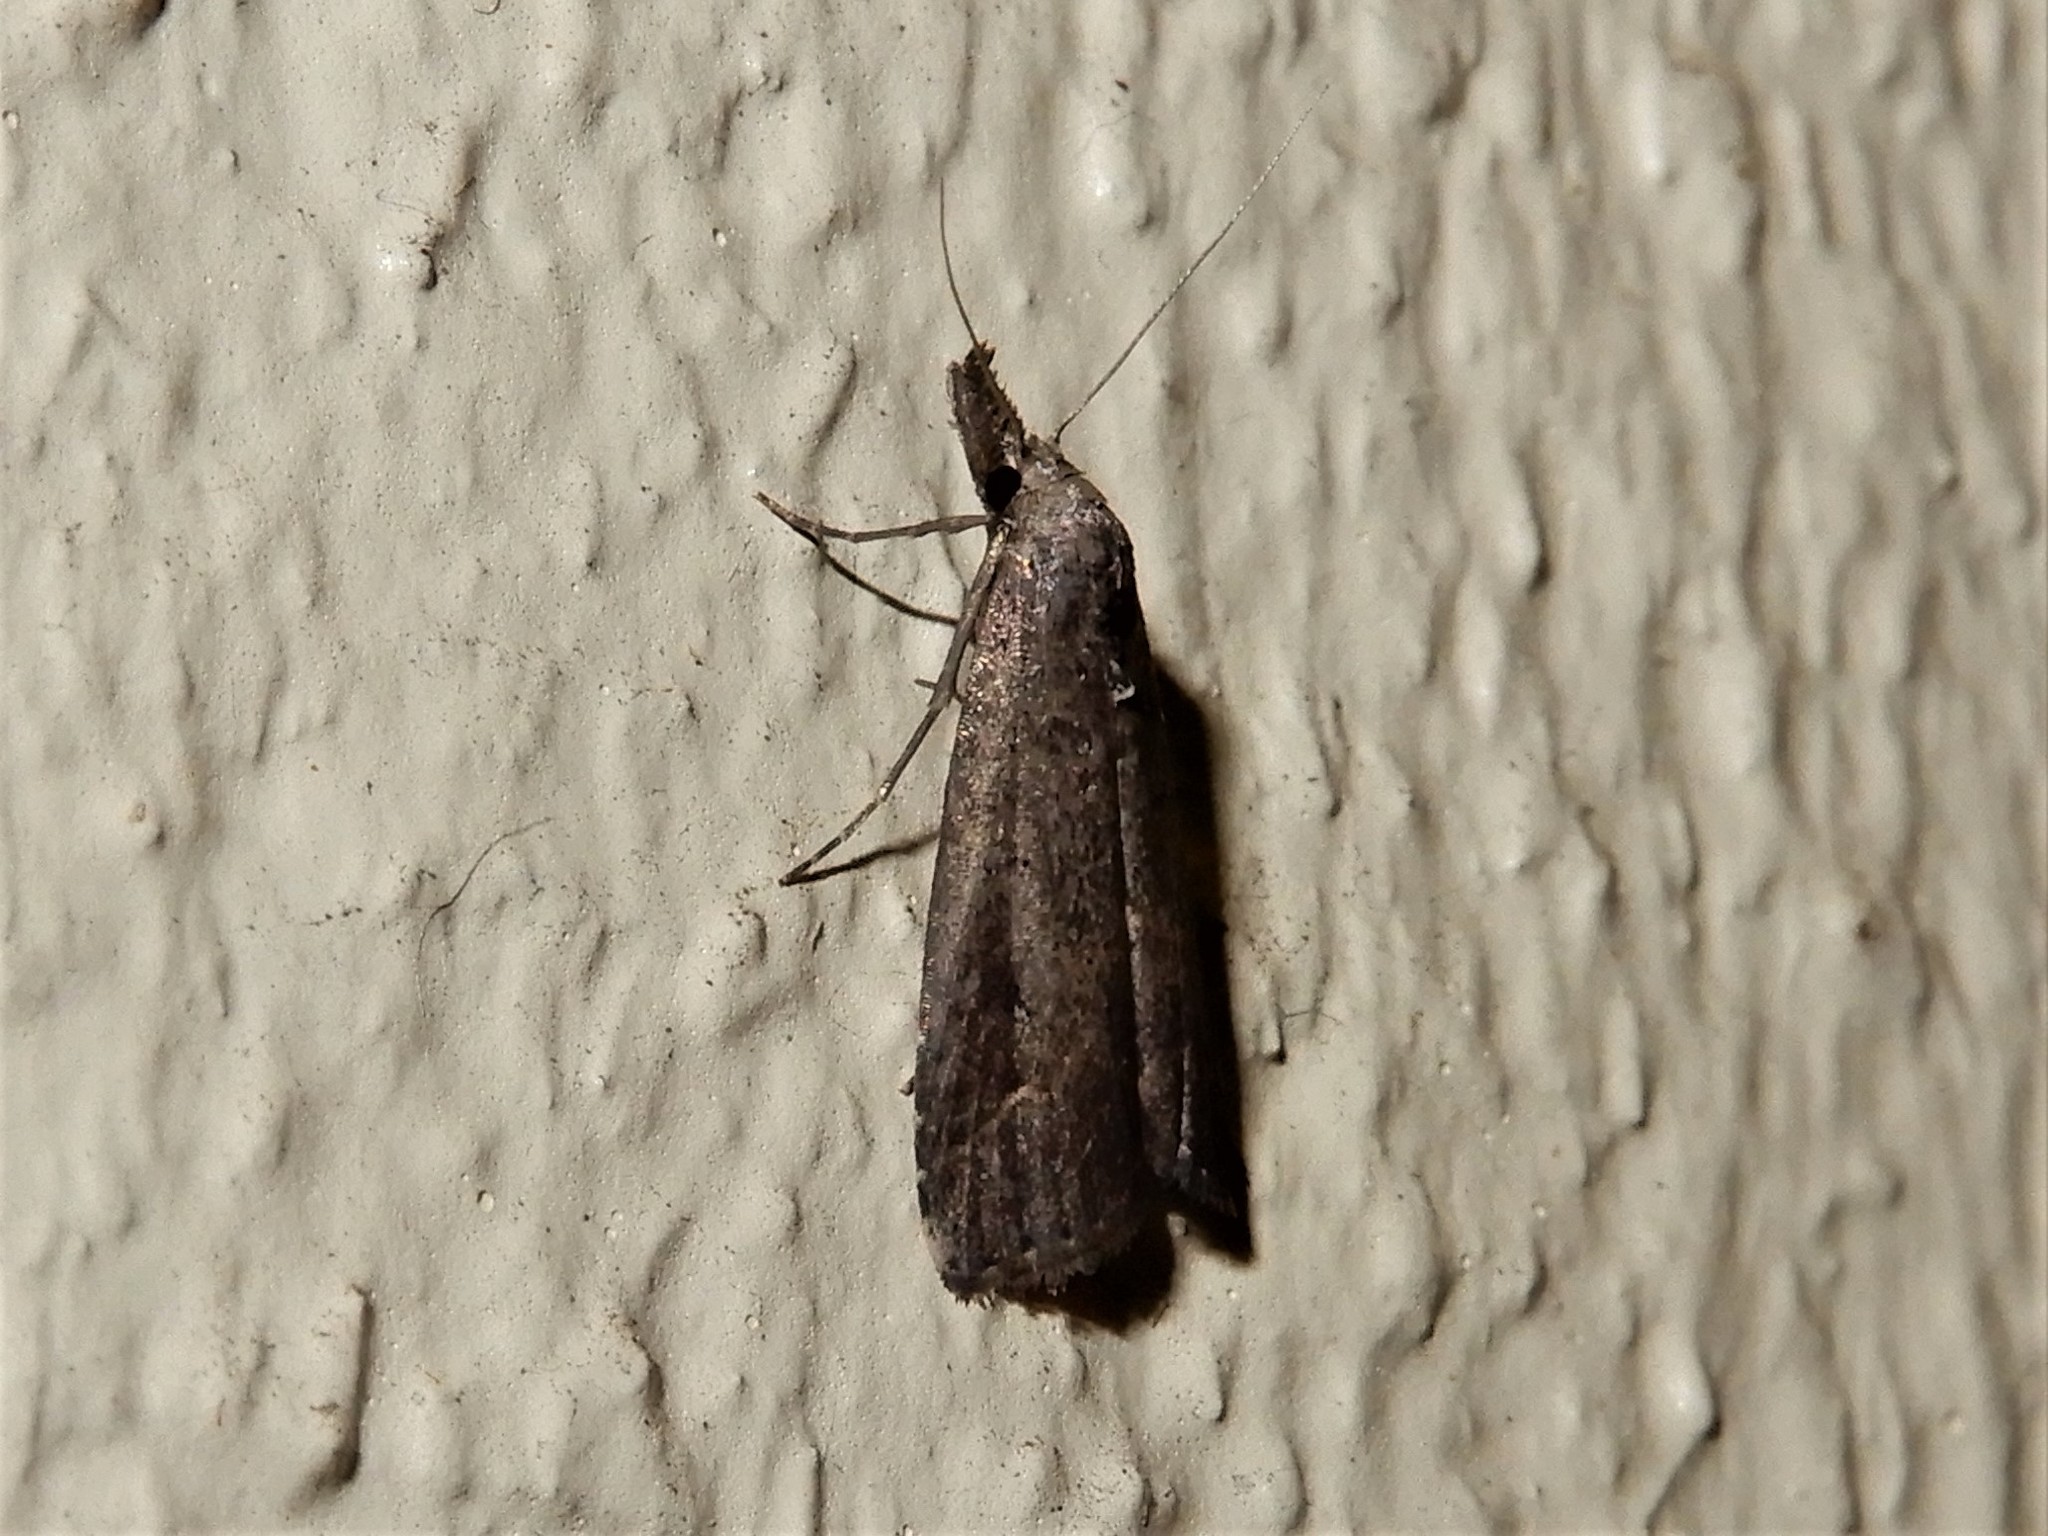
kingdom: Animalia
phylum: Arthropoda
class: Insecta
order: Lepidoptera
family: Erebidae
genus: Schrankia
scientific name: Schrankia costaestrigalis
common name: Pinion-streaked snout
